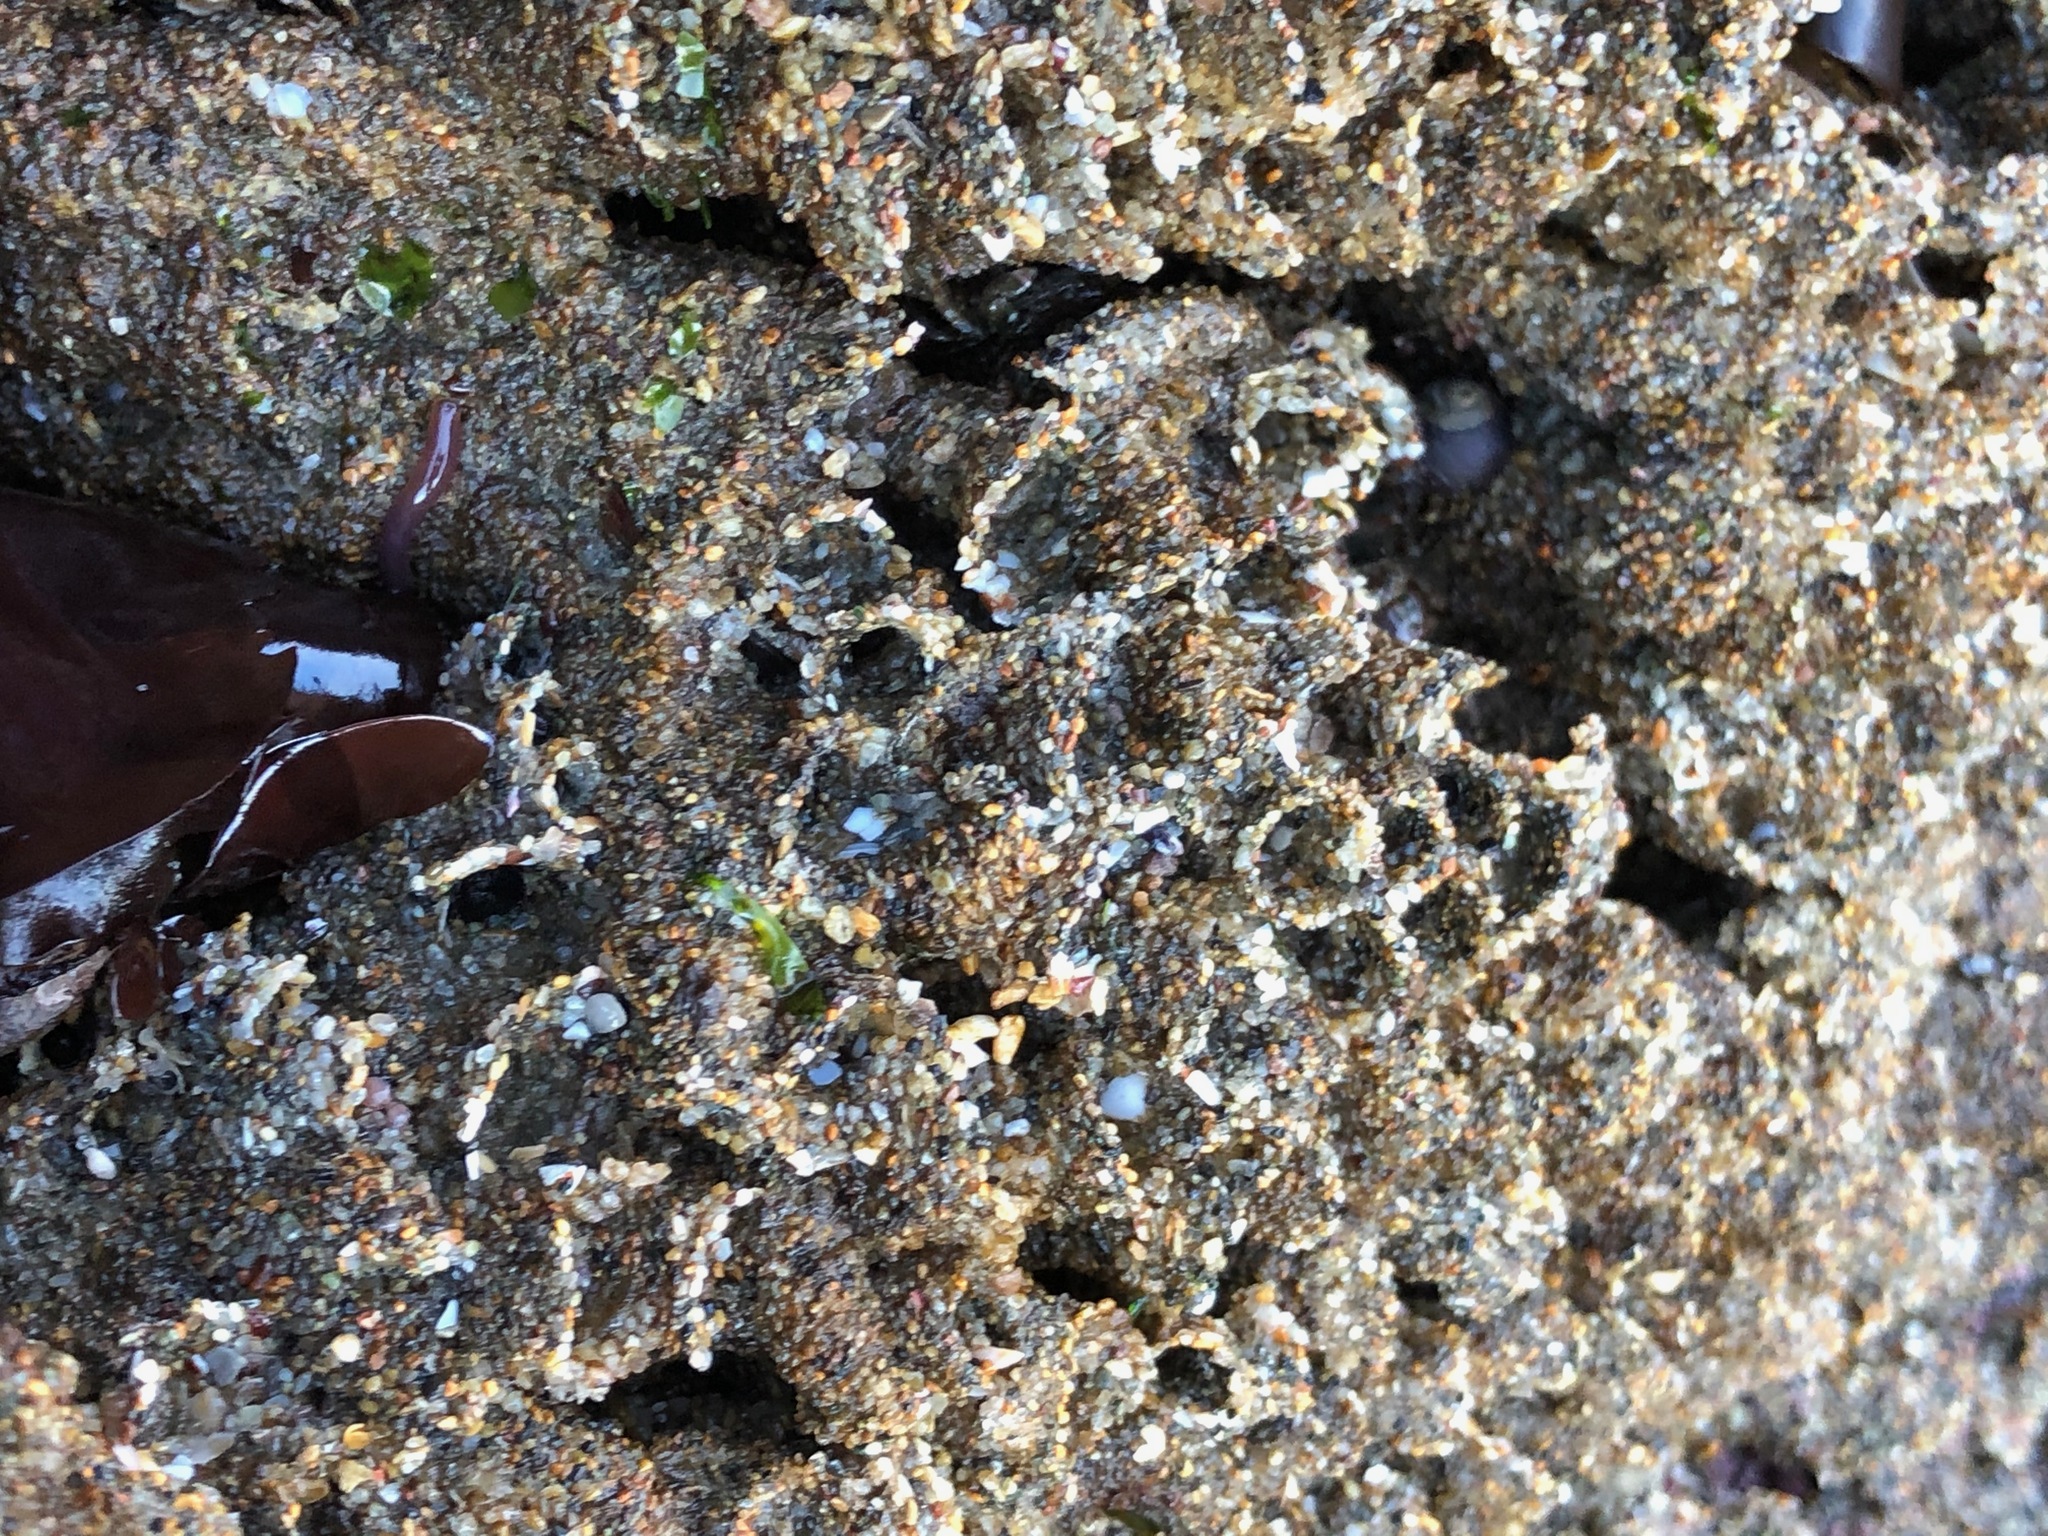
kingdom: Animalia
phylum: Annelida
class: Polychaeta
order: Sabellida
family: Sabellariidae
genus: Phragmatopoma
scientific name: Phragmatopoma californica
